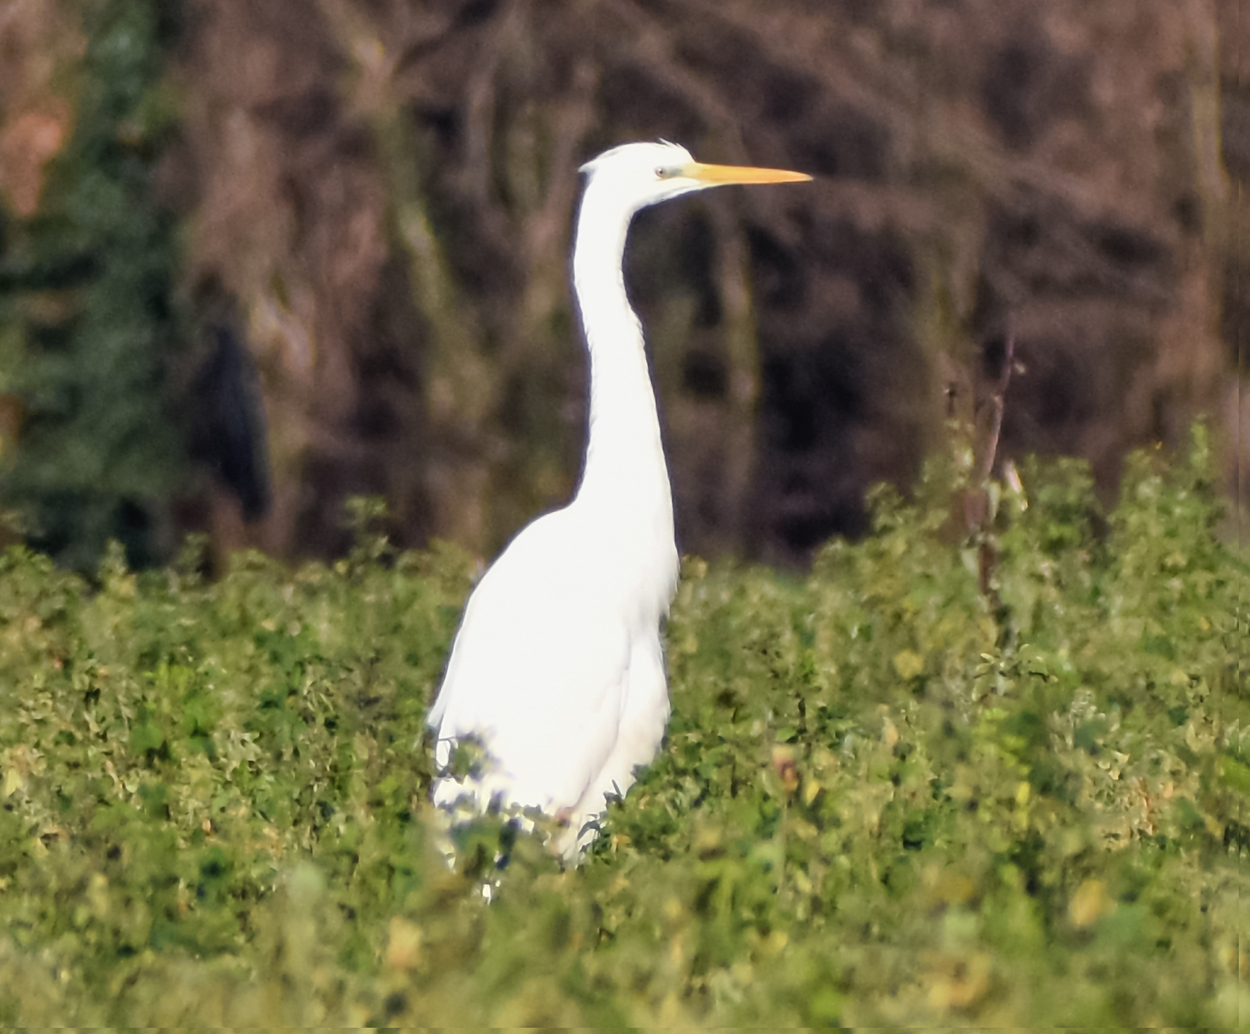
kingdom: Animalia
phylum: Chordata
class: Aves
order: Pelecaniformes
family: Ardeidae
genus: Ardea
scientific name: Ardea alba
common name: Great egret
